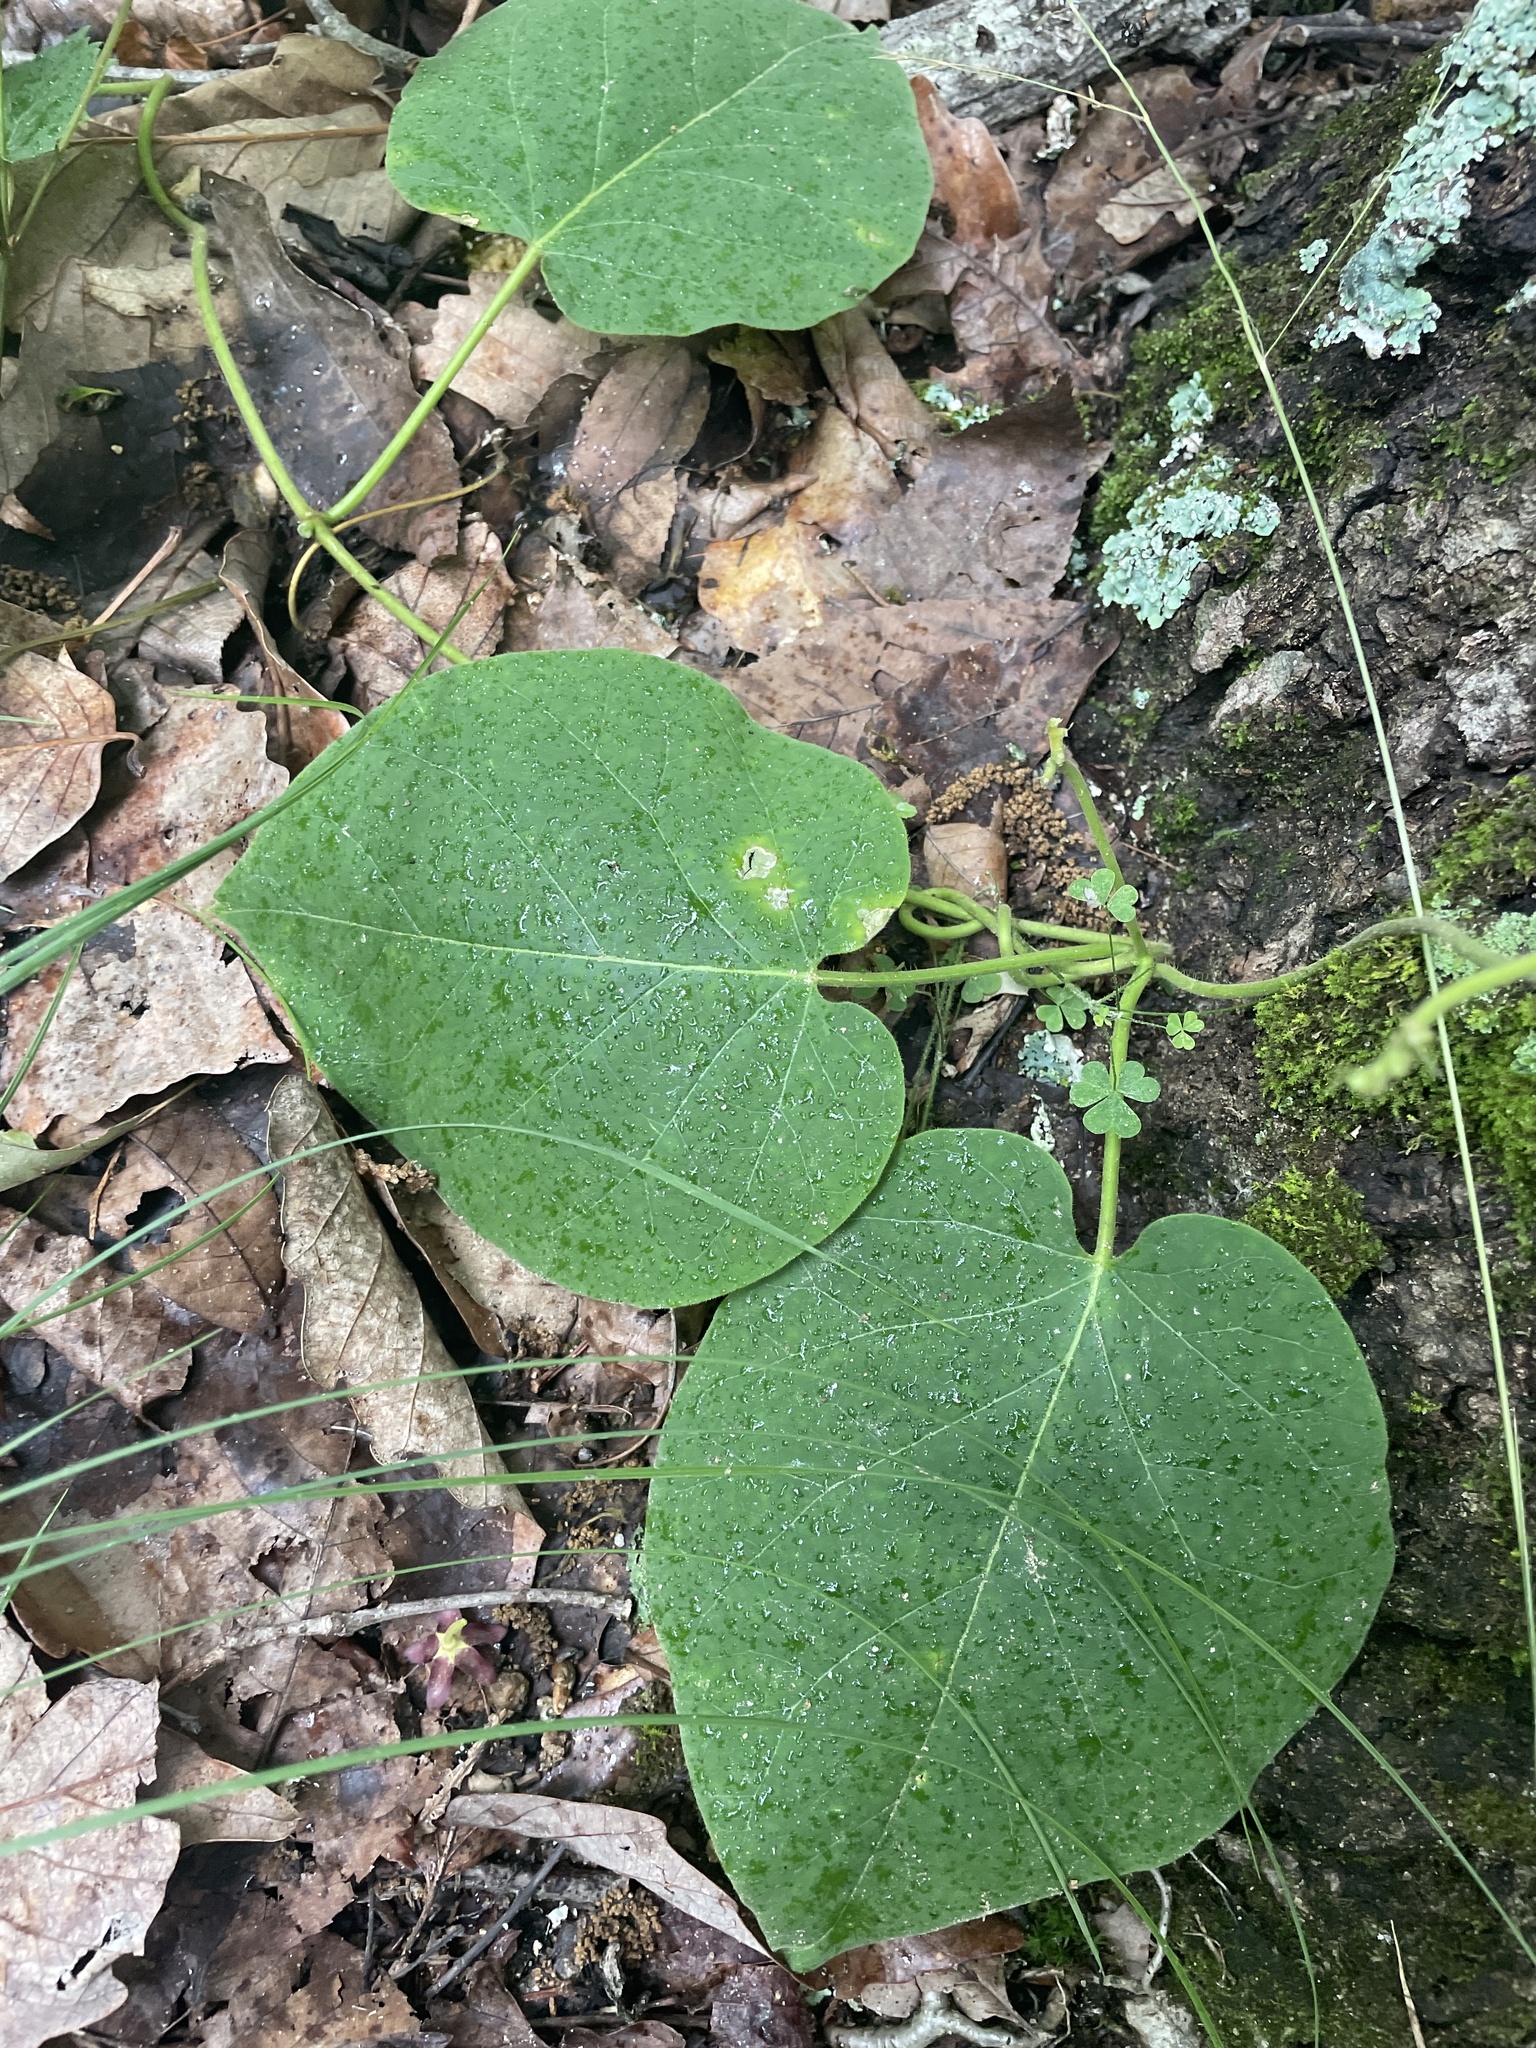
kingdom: Plantae
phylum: Tracheophyta
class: Magnoliopsida
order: Gentianales
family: Apocynaceae
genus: Matelea
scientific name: Matelea carolinensis
